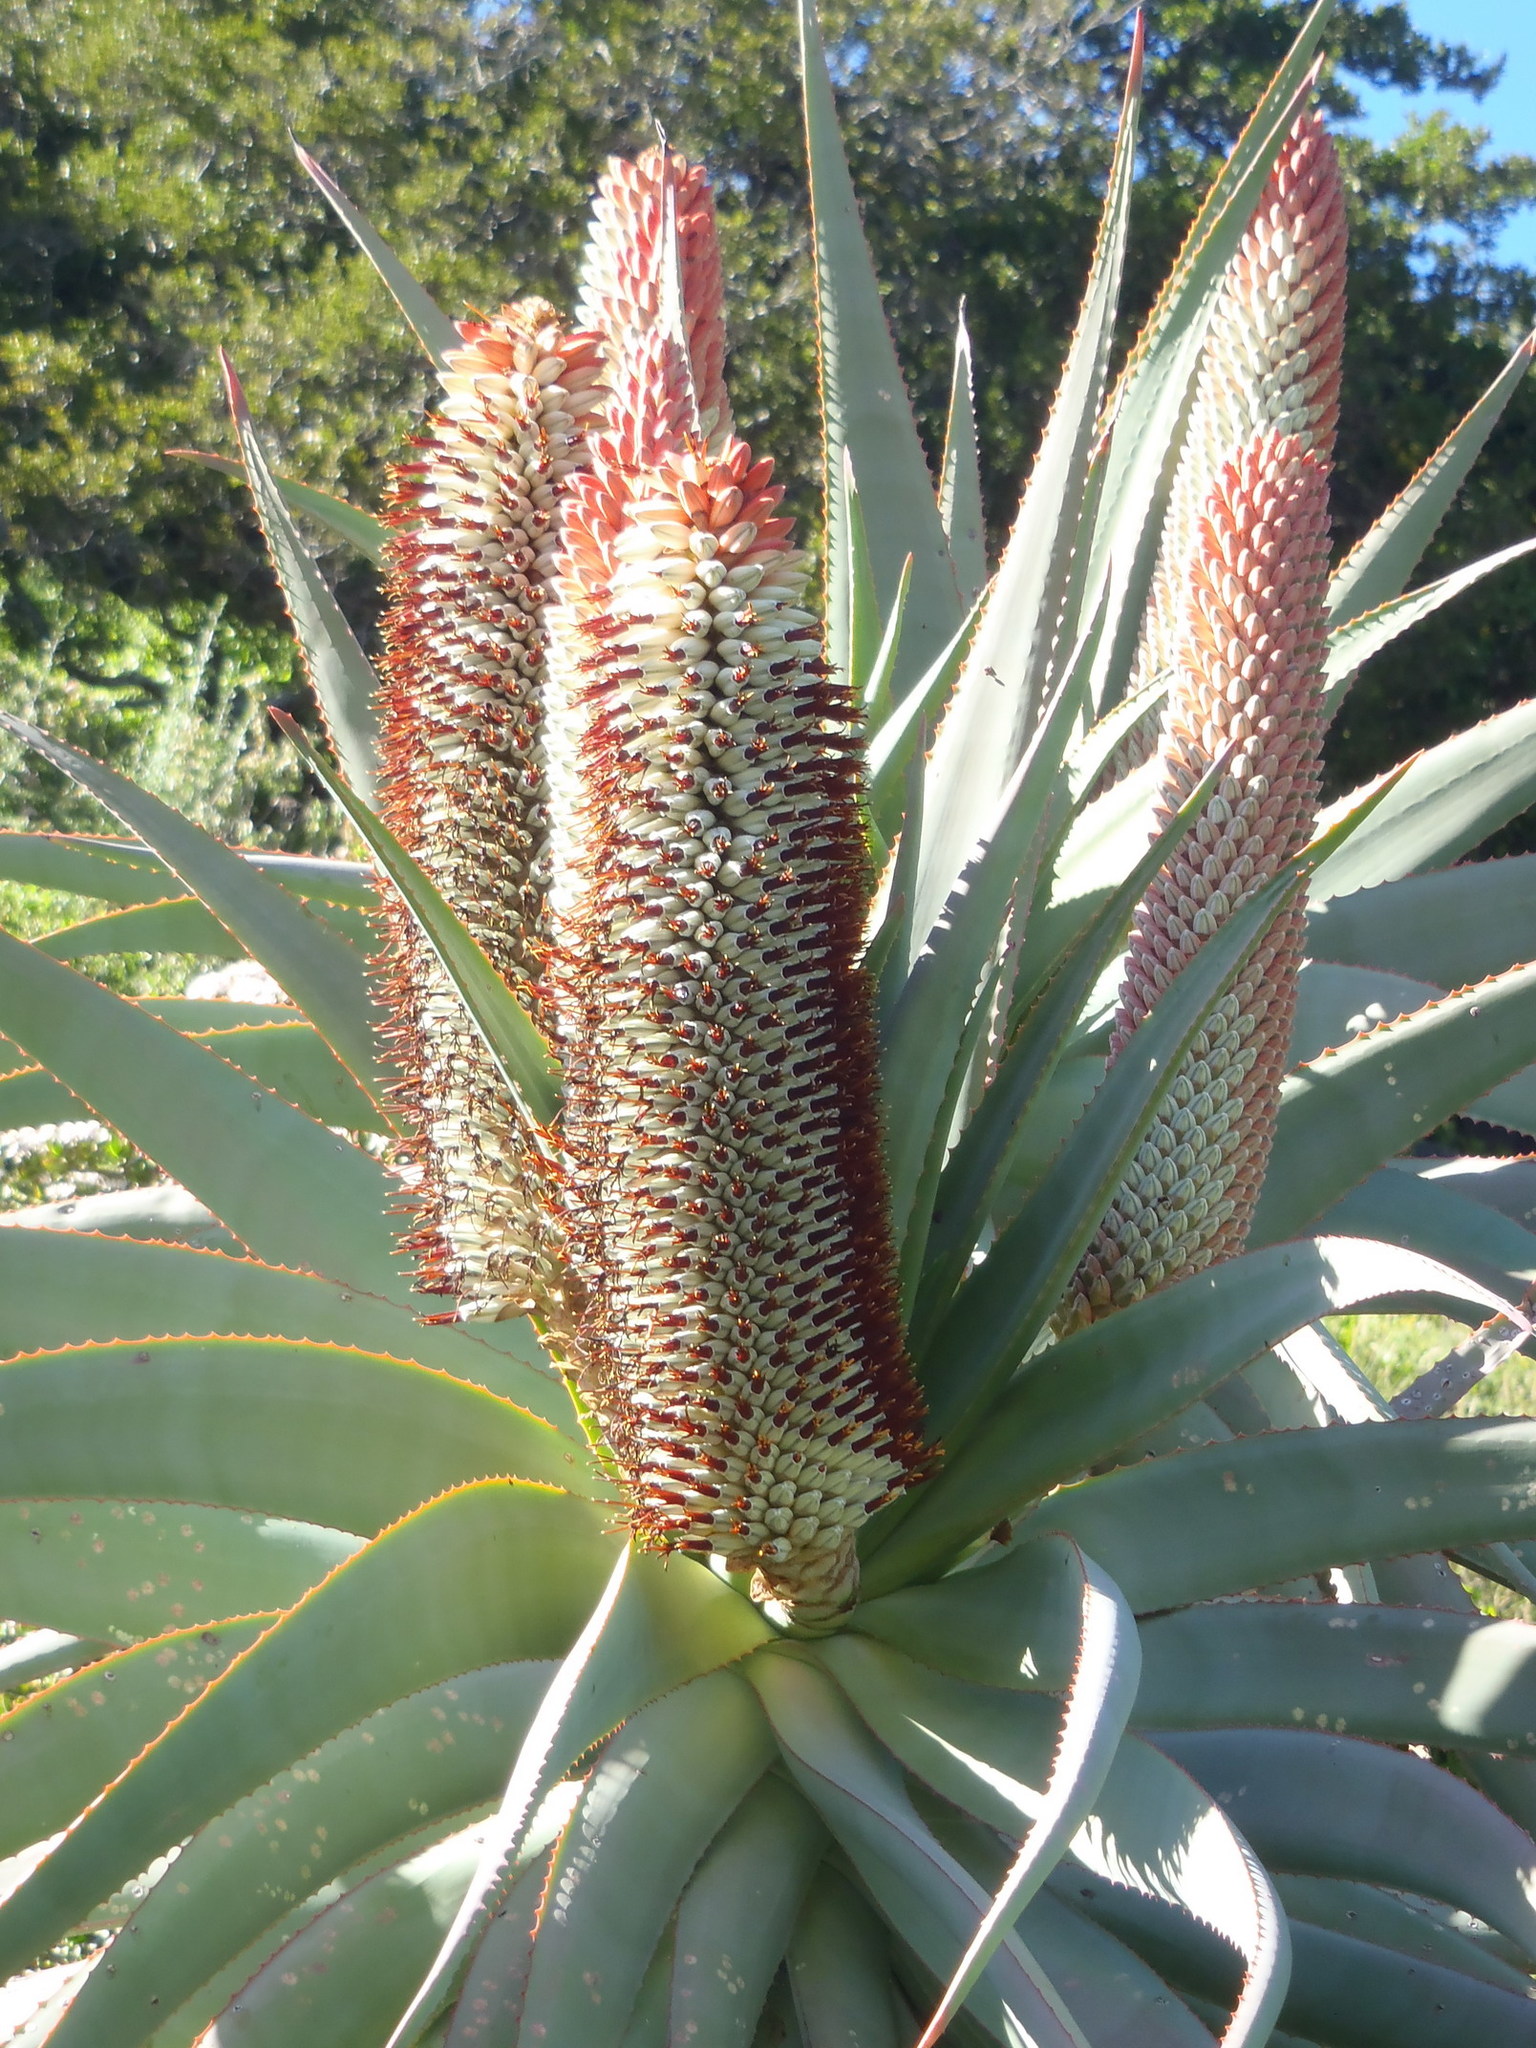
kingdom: Plantae
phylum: Tracheophyta
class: Liliopsida
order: Asparagales
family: Asphodelaceae
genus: Aloe
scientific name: Aloe speciosa
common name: Beautiful aloe
